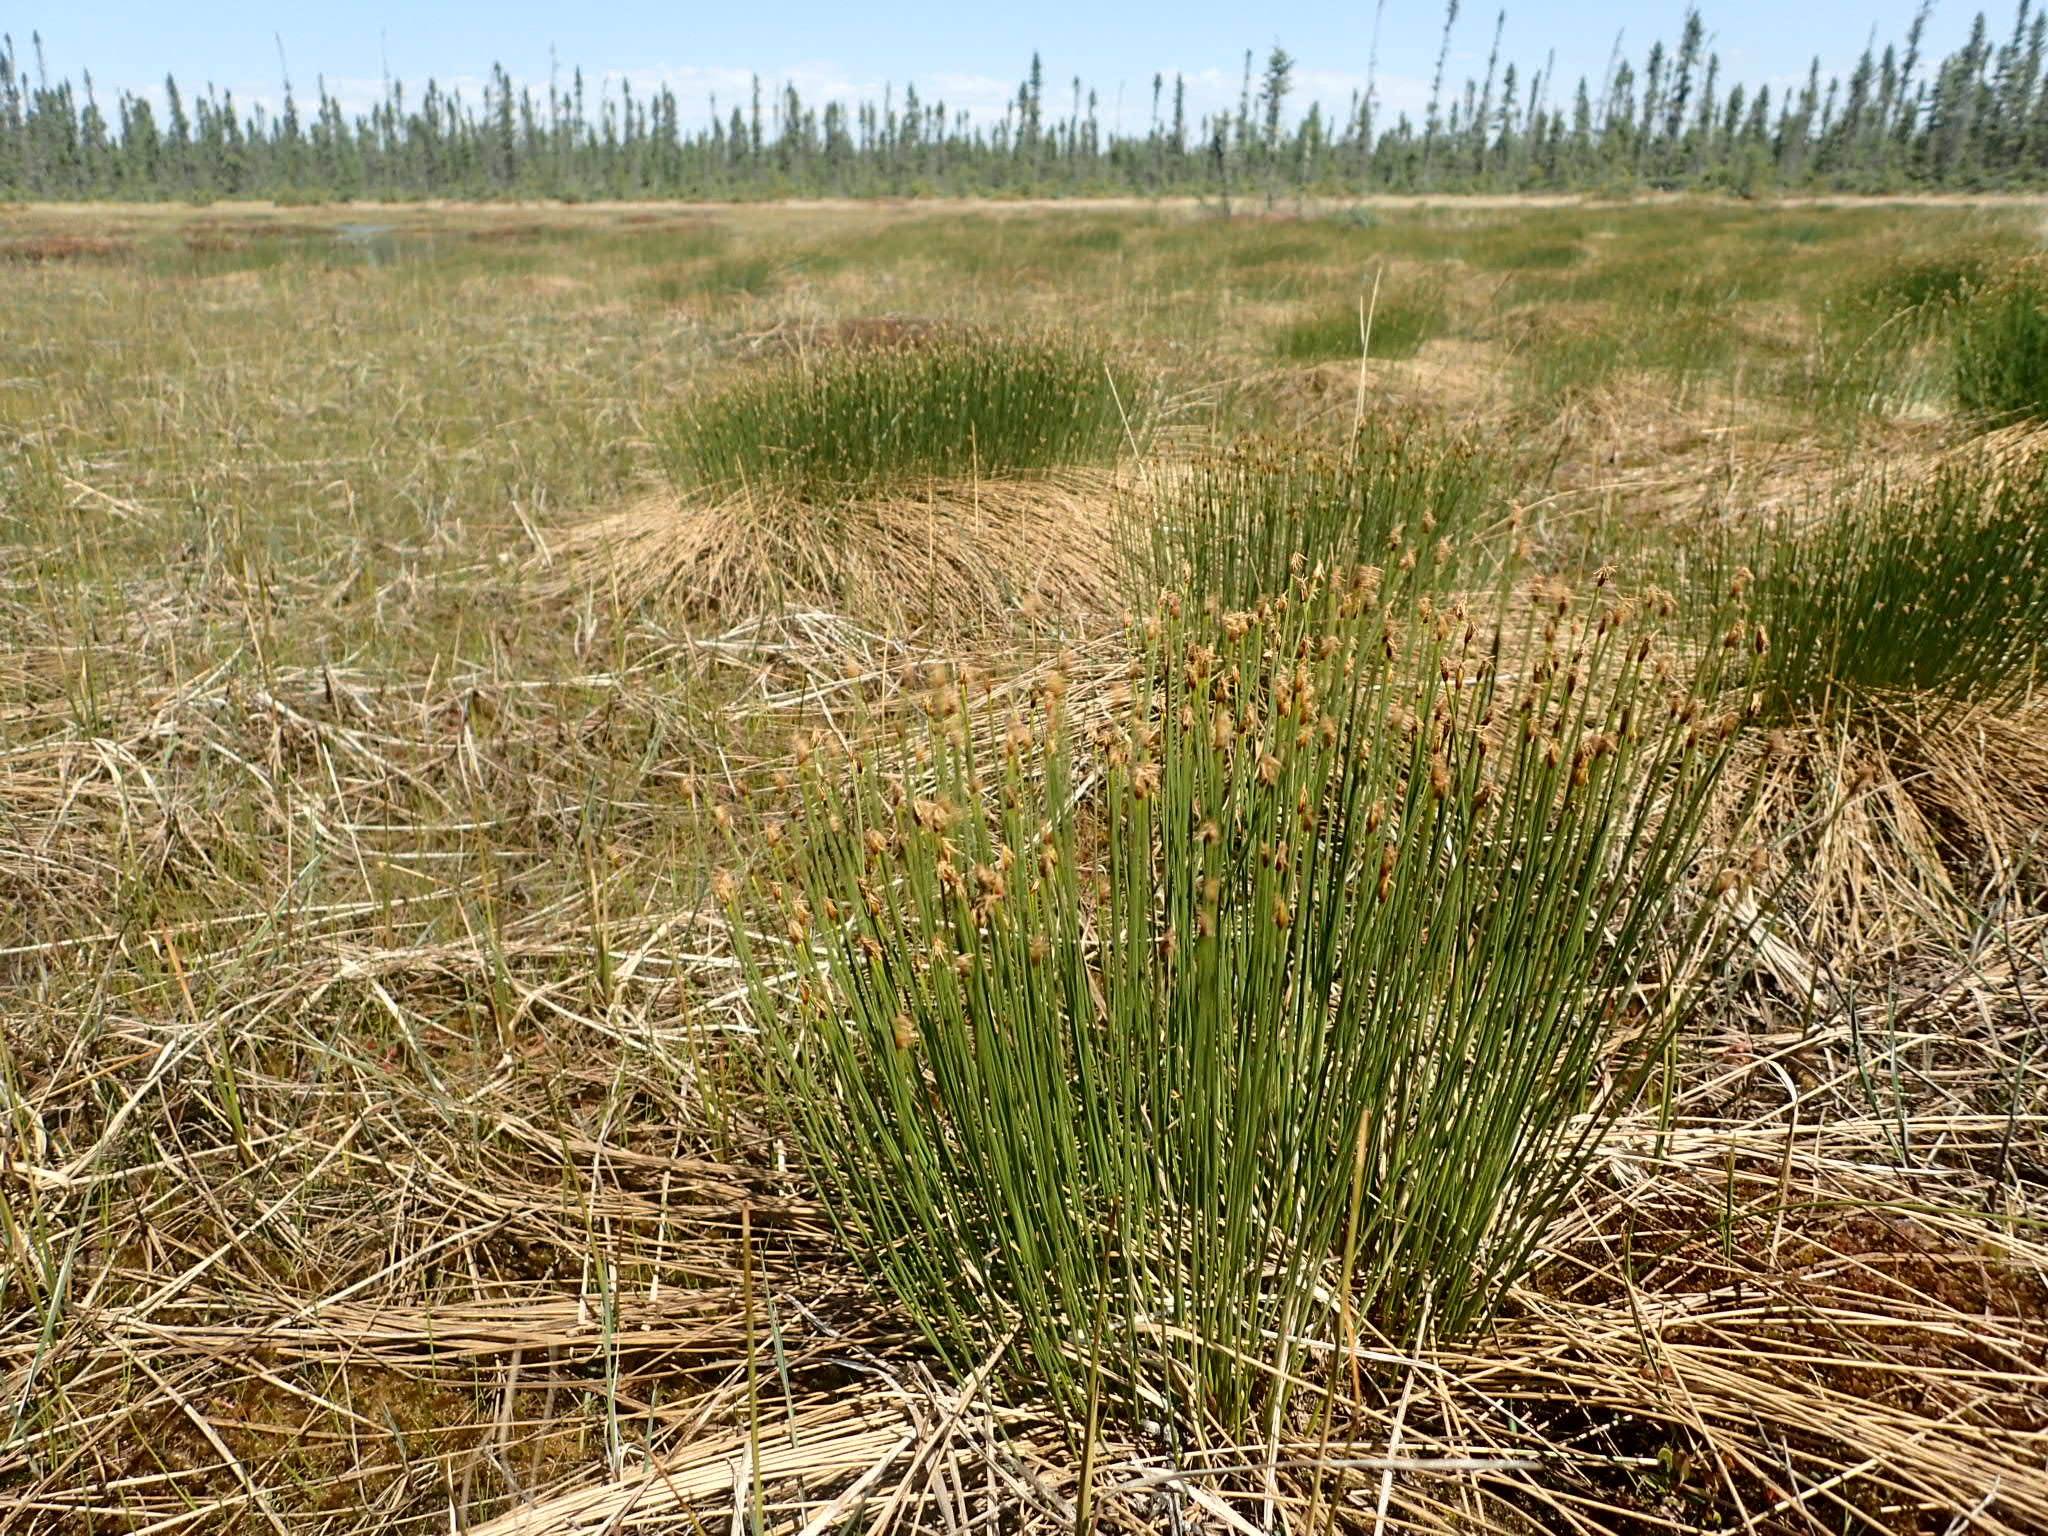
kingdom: Plantae
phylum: Tracheophyta
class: Liliopsida
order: Poales
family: Cyperaceae
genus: Trichophorum
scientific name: Trichophorum cespitosum
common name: Cespitose bulrush
